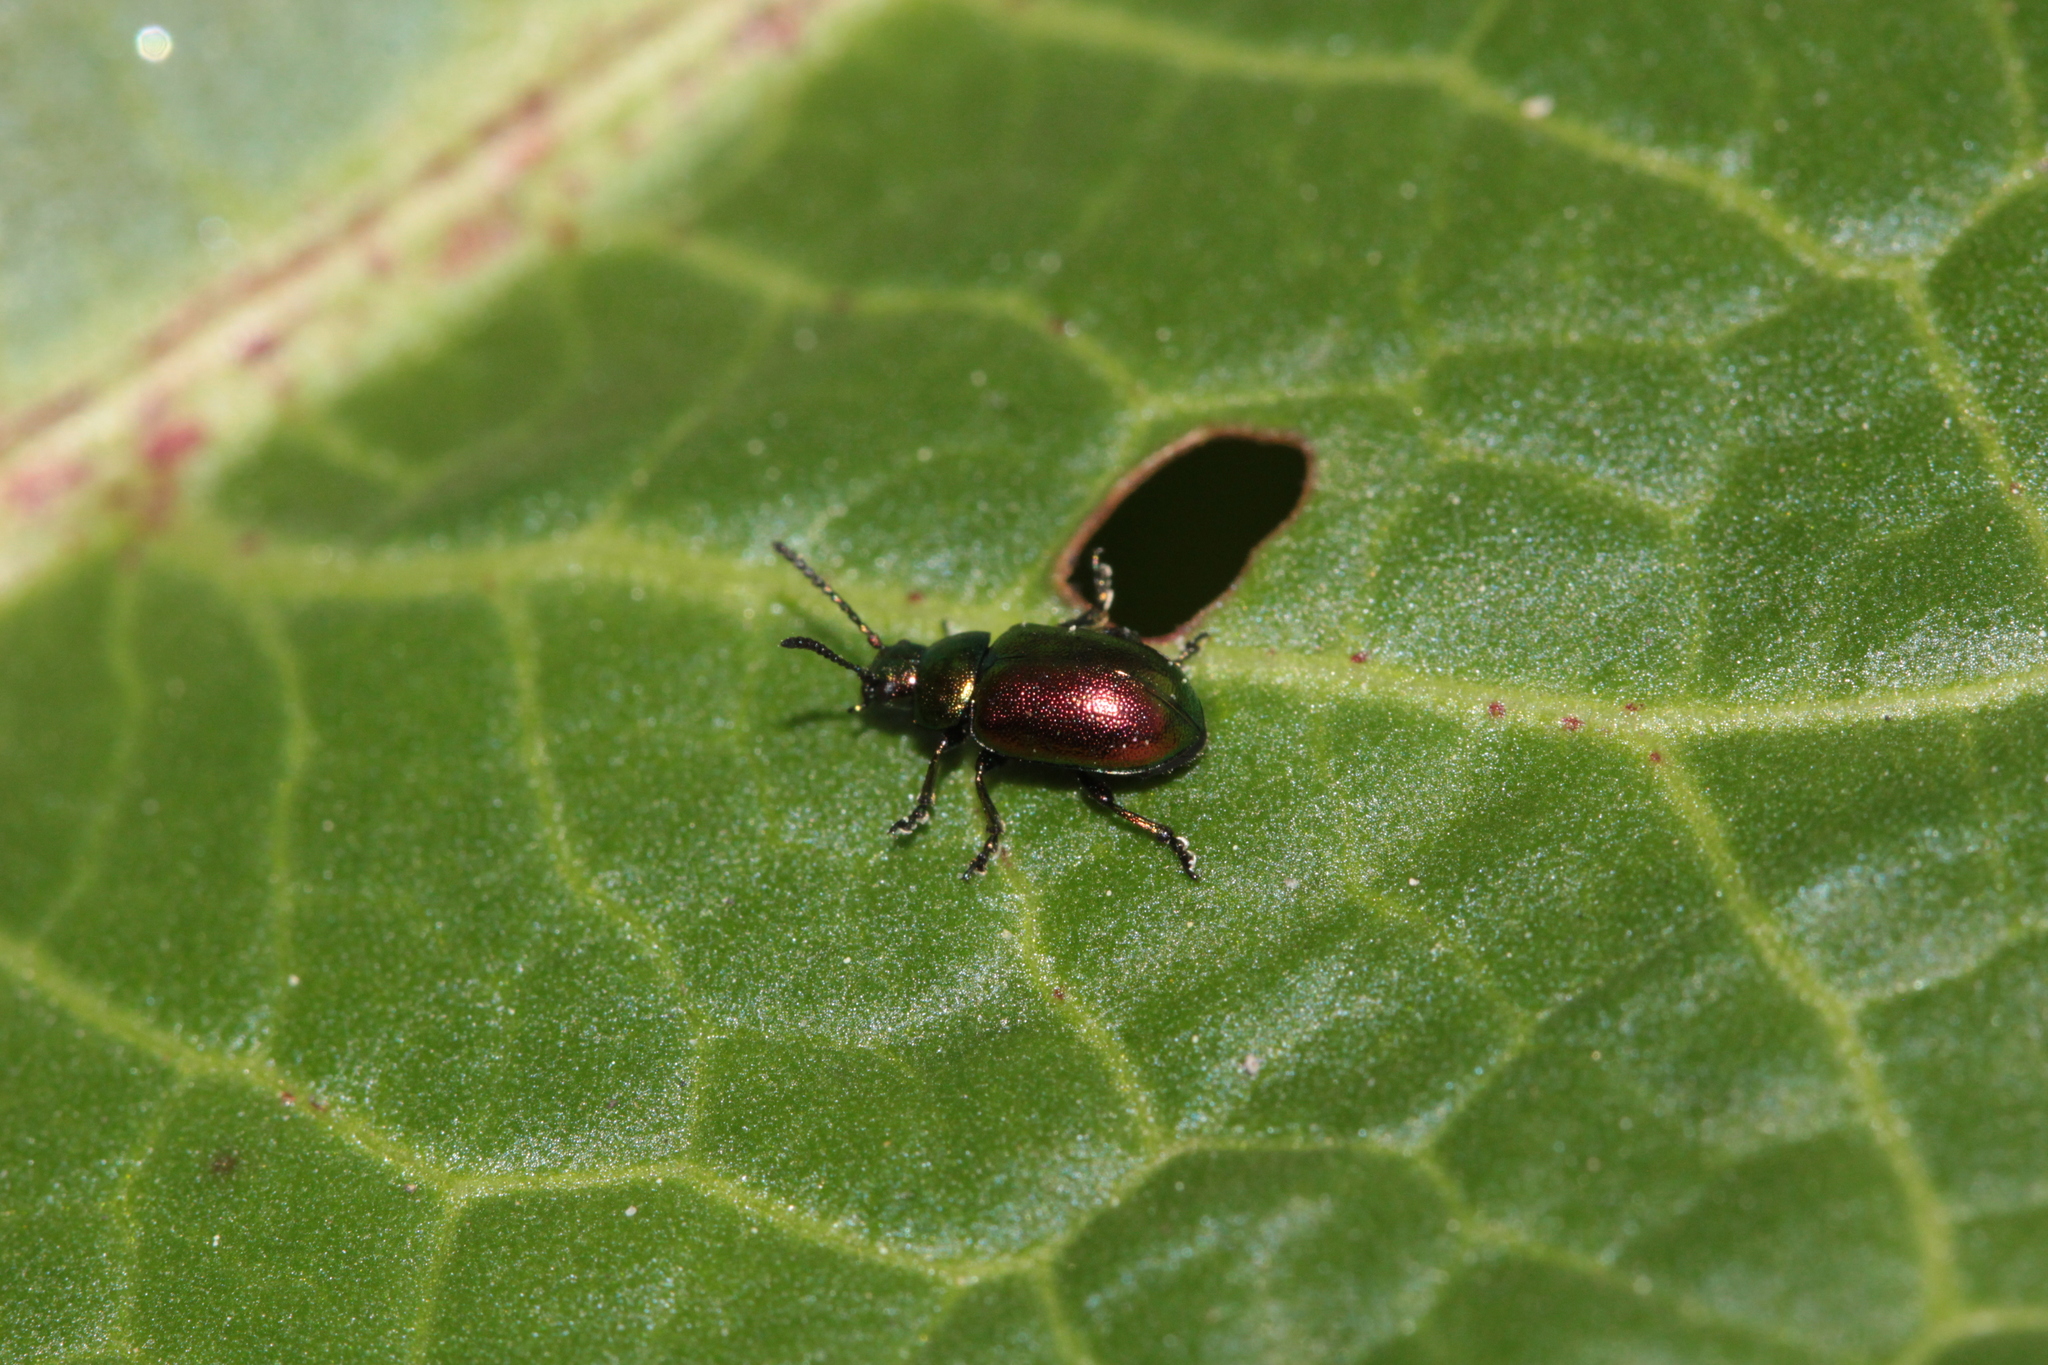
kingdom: Animalia
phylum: Arthropoda
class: Insecta
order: Coleoptera
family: Chrysomelidae
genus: Gastrophysa
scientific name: Gastrophysa viridula
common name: Green dock beetle
